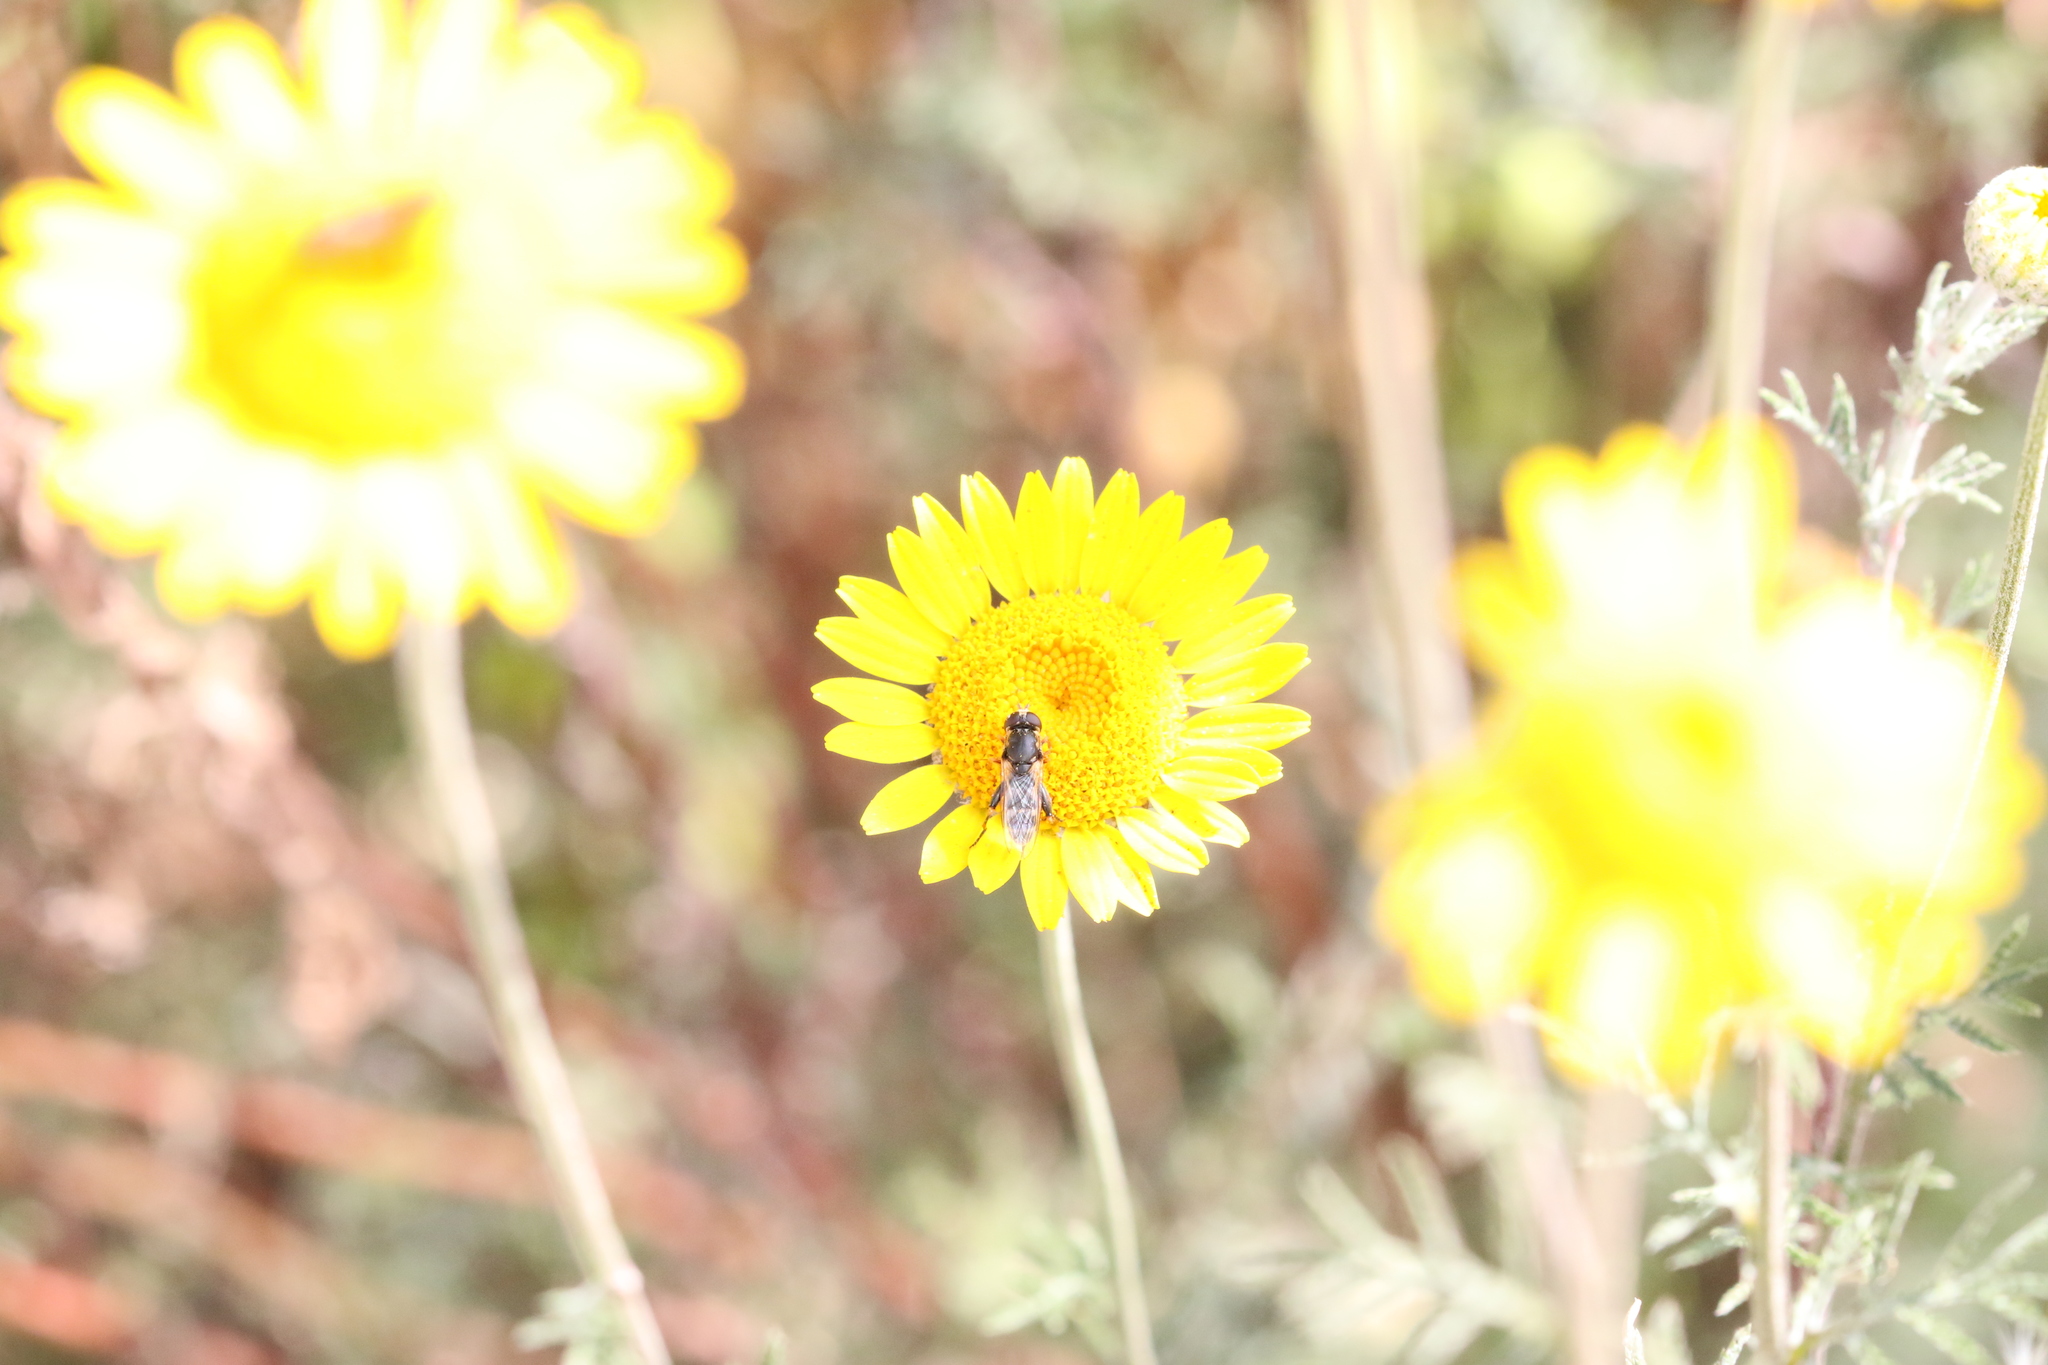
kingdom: Animalia
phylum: Arthropoda
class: Insecta
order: Diptera
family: Syrphidae
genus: Syritta
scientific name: Syritta pipiens
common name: Hover fly
